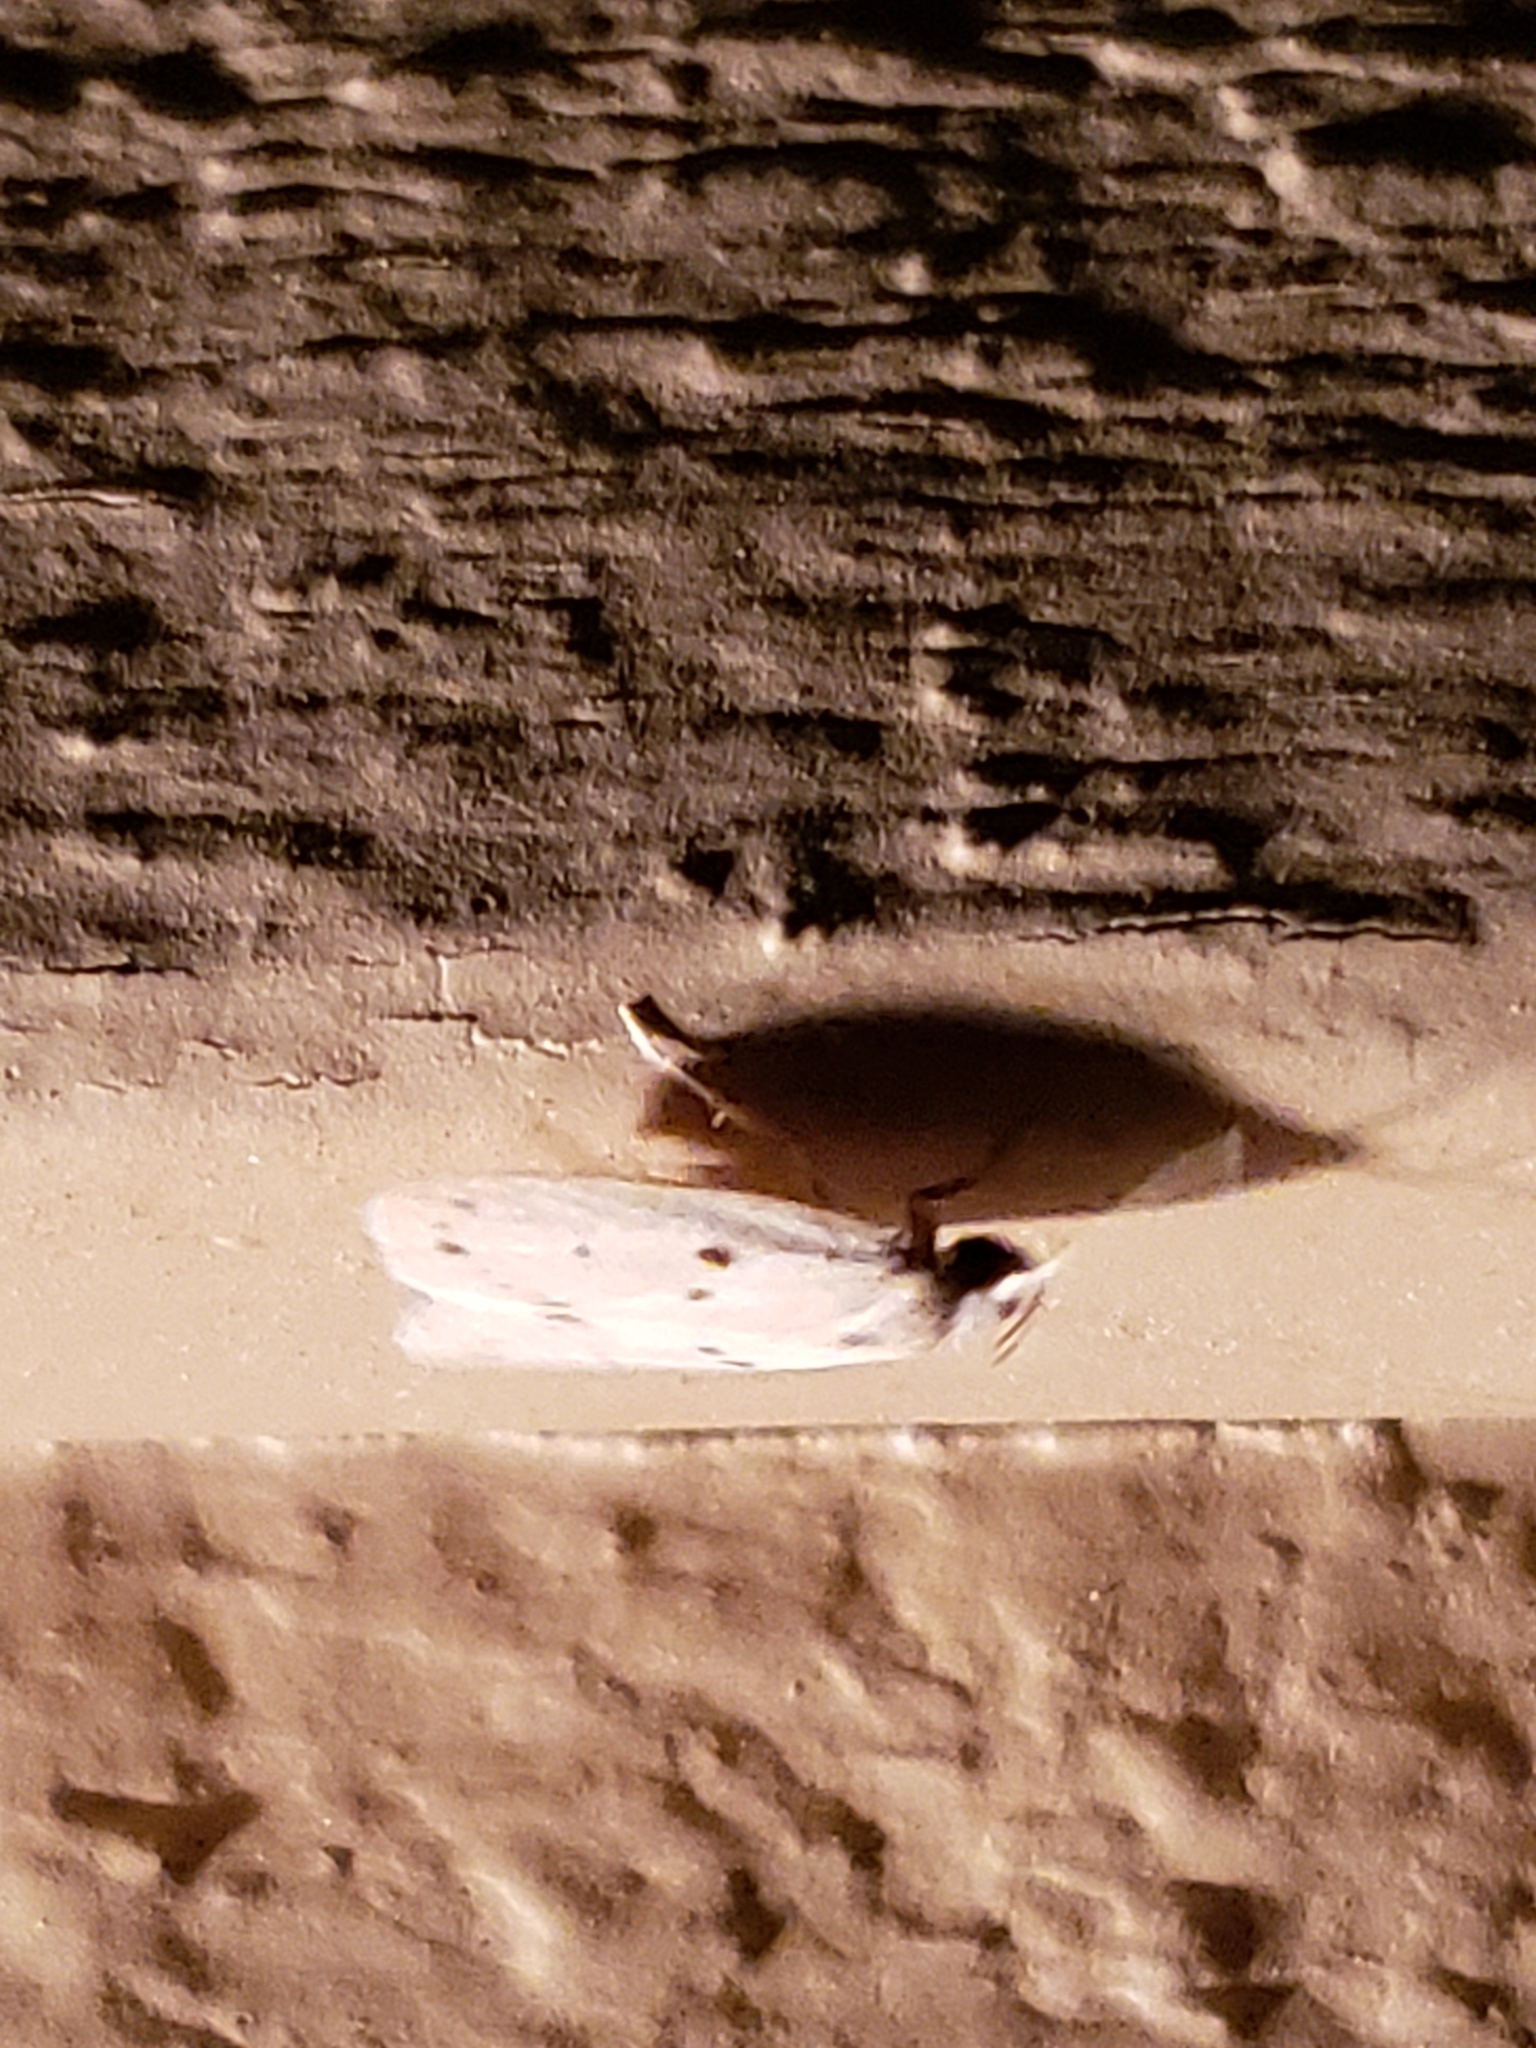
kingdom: Animalia
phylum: Arthropoda
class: Insecta
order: Lepidoptera
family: Peleopodidae
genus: Scythropiodes
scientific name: Scythropiodes issikii
